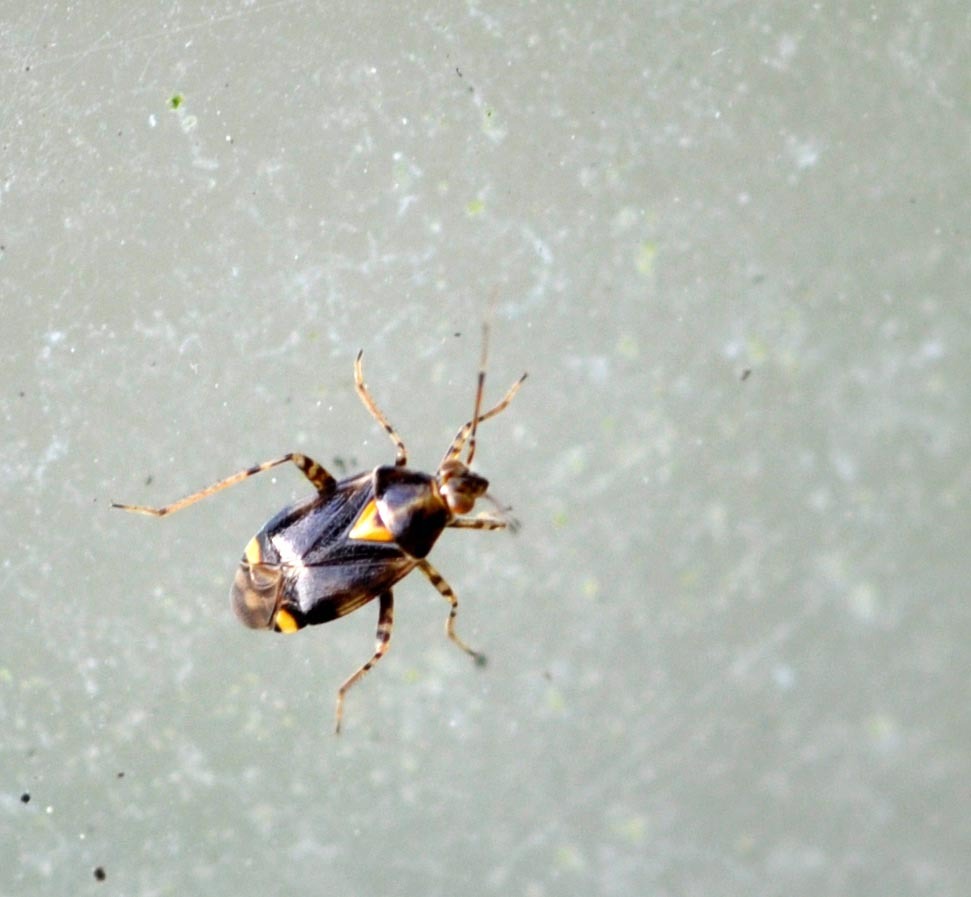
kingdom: Animalia
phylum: Arthropoda
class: Insecta
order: Hemiptera
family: Miridae
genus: Liocoris
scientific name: Liocoris tripustulatus
